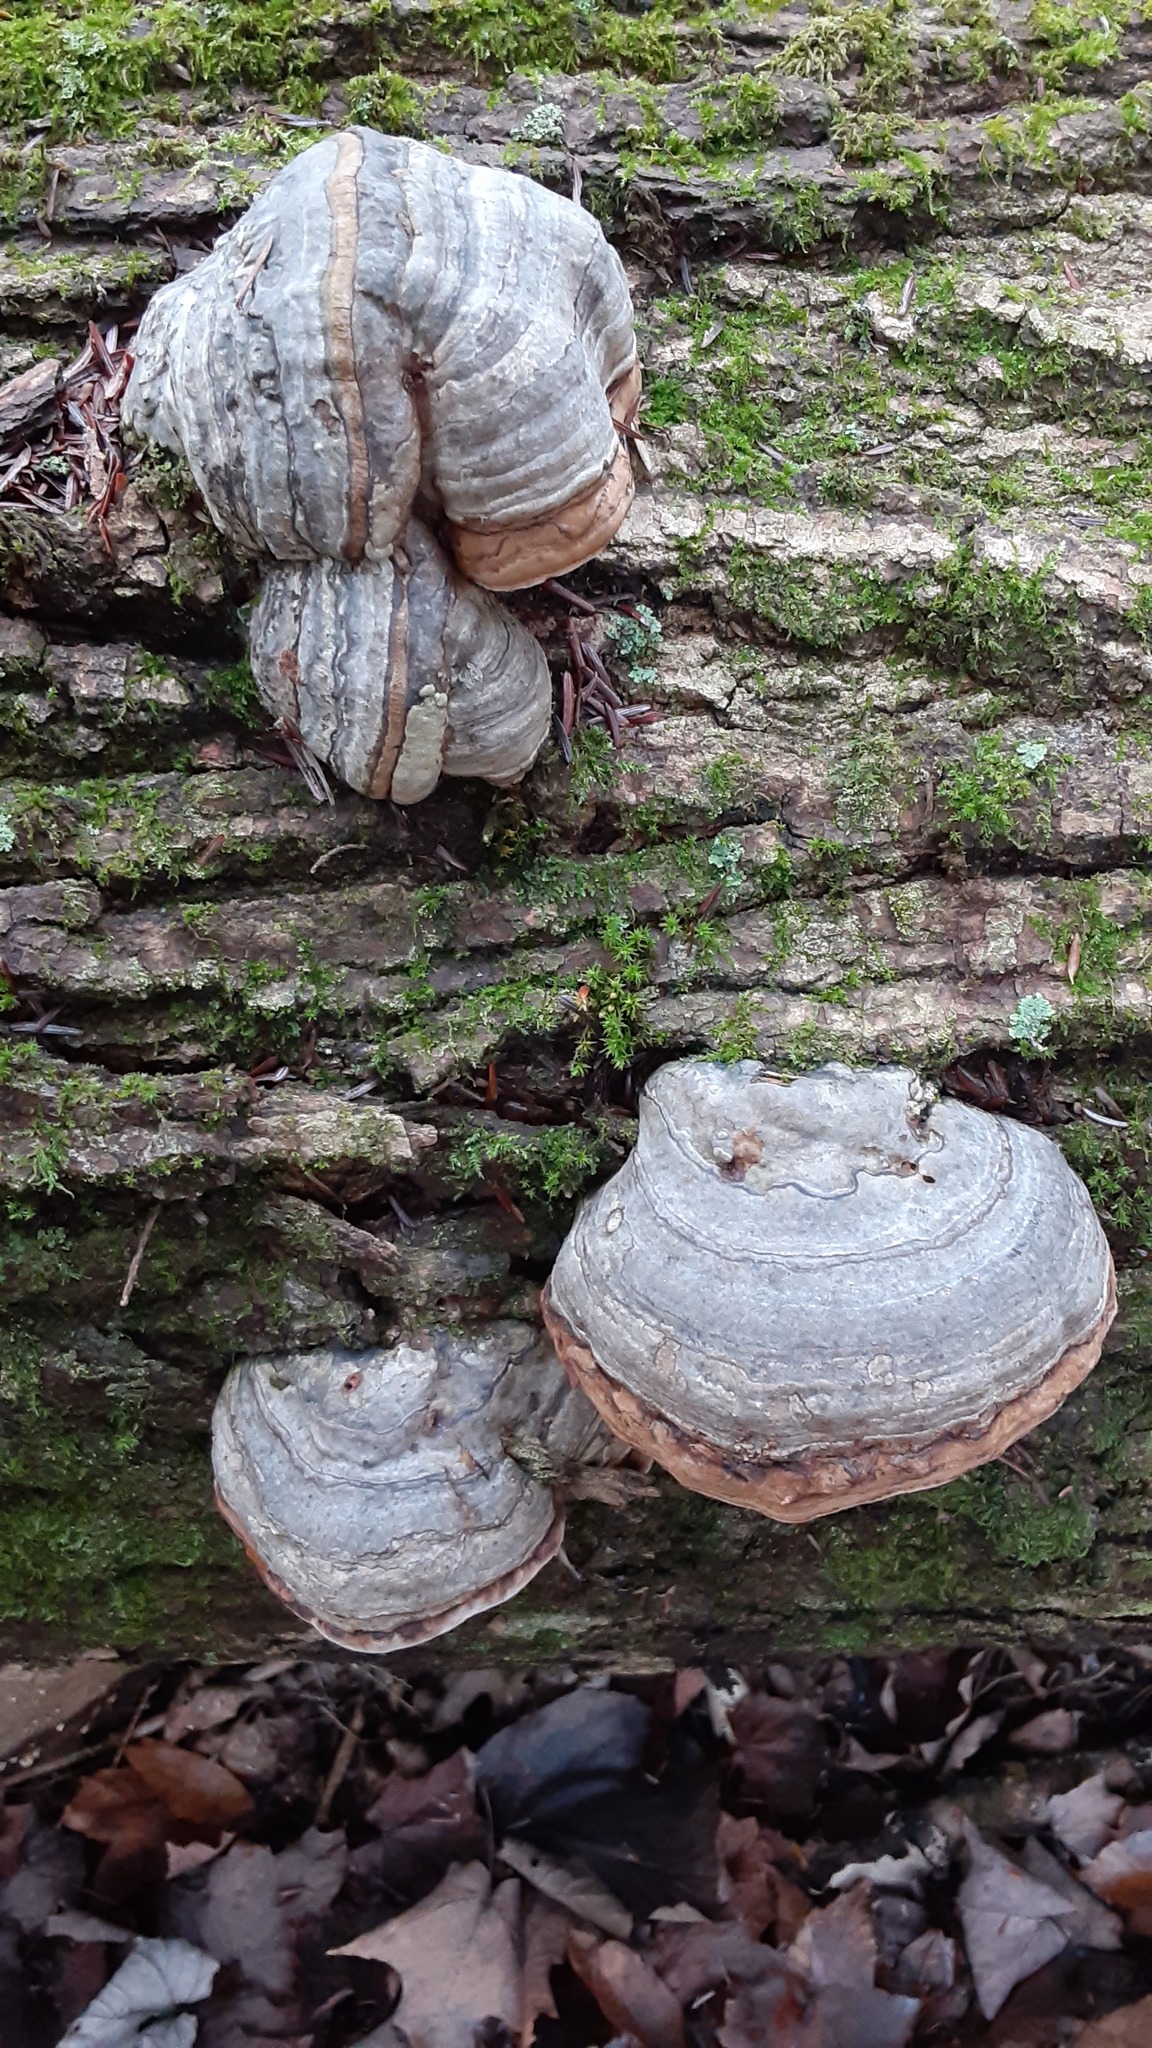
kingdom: Fungi
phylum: Basidiomycota
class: Agaricomycetes
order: Polyporales
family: Polyporaceae
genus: Fomes
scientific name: Fomes fomentarius
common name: Hoof fungus
